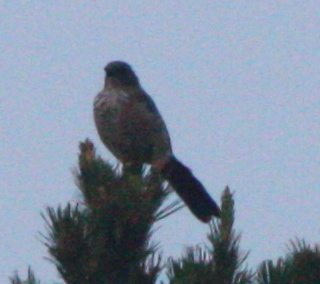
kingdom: Animalia
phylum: Chordata
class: Aves
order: Passeriformes
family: Corvidae
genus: Aphelocoma
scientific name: Aphelocoma woodhouseii
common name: Woodhouse's scrub-jay
